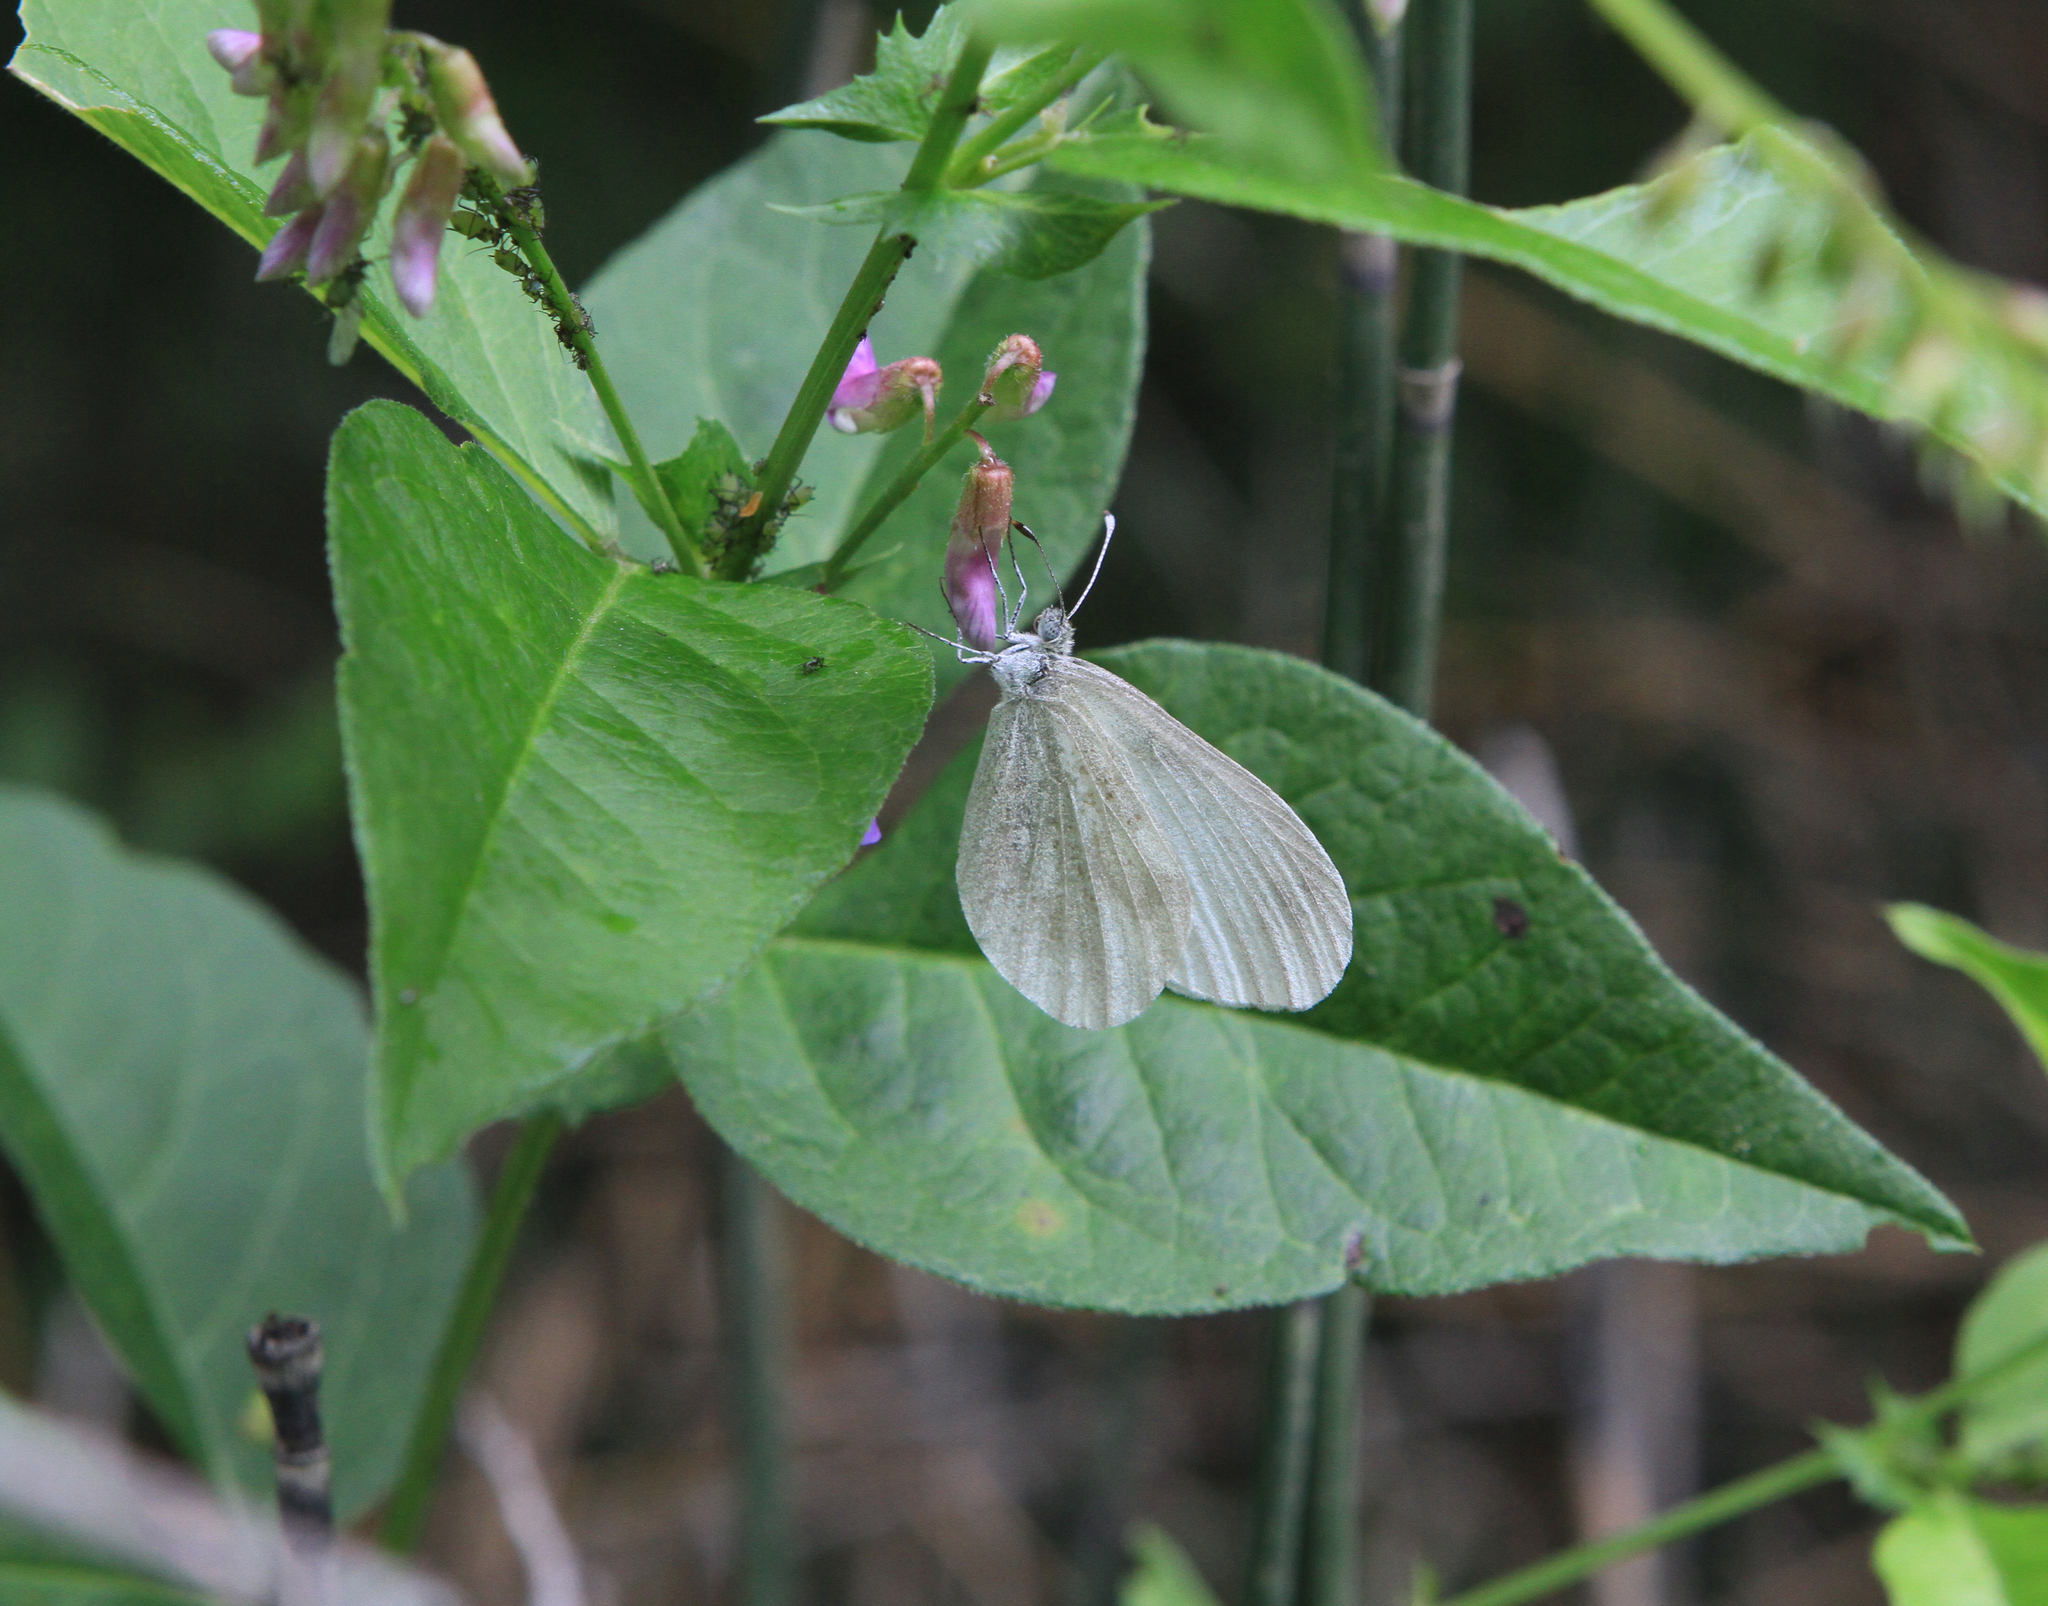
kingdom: Animalia
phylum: Arthropoda
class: Insecta
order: Lepidoptera
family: Pieridae
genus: Leptidea
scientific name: Leptidea morsei
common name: Fenton's wood white
